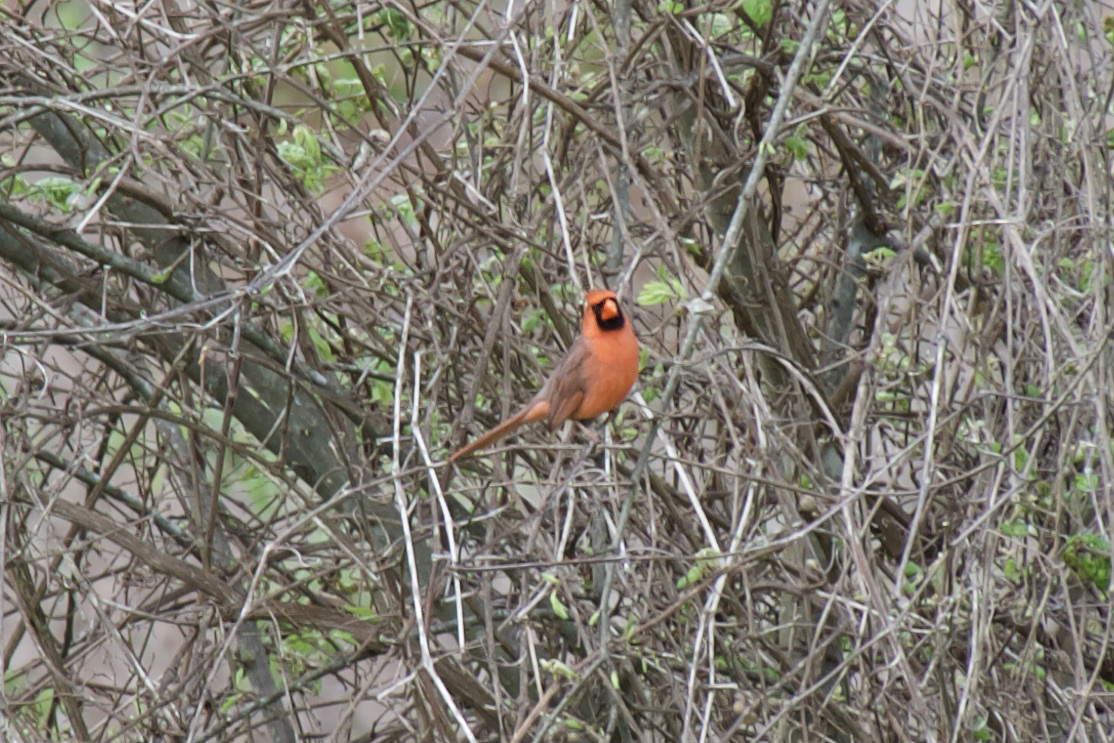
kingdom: Animalia
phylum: Chordata
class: Aves
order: Passeriformes
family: Cardinalidae
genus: Cardinalis
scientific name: Cardinalis cardinalis
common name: Northern cardinal
